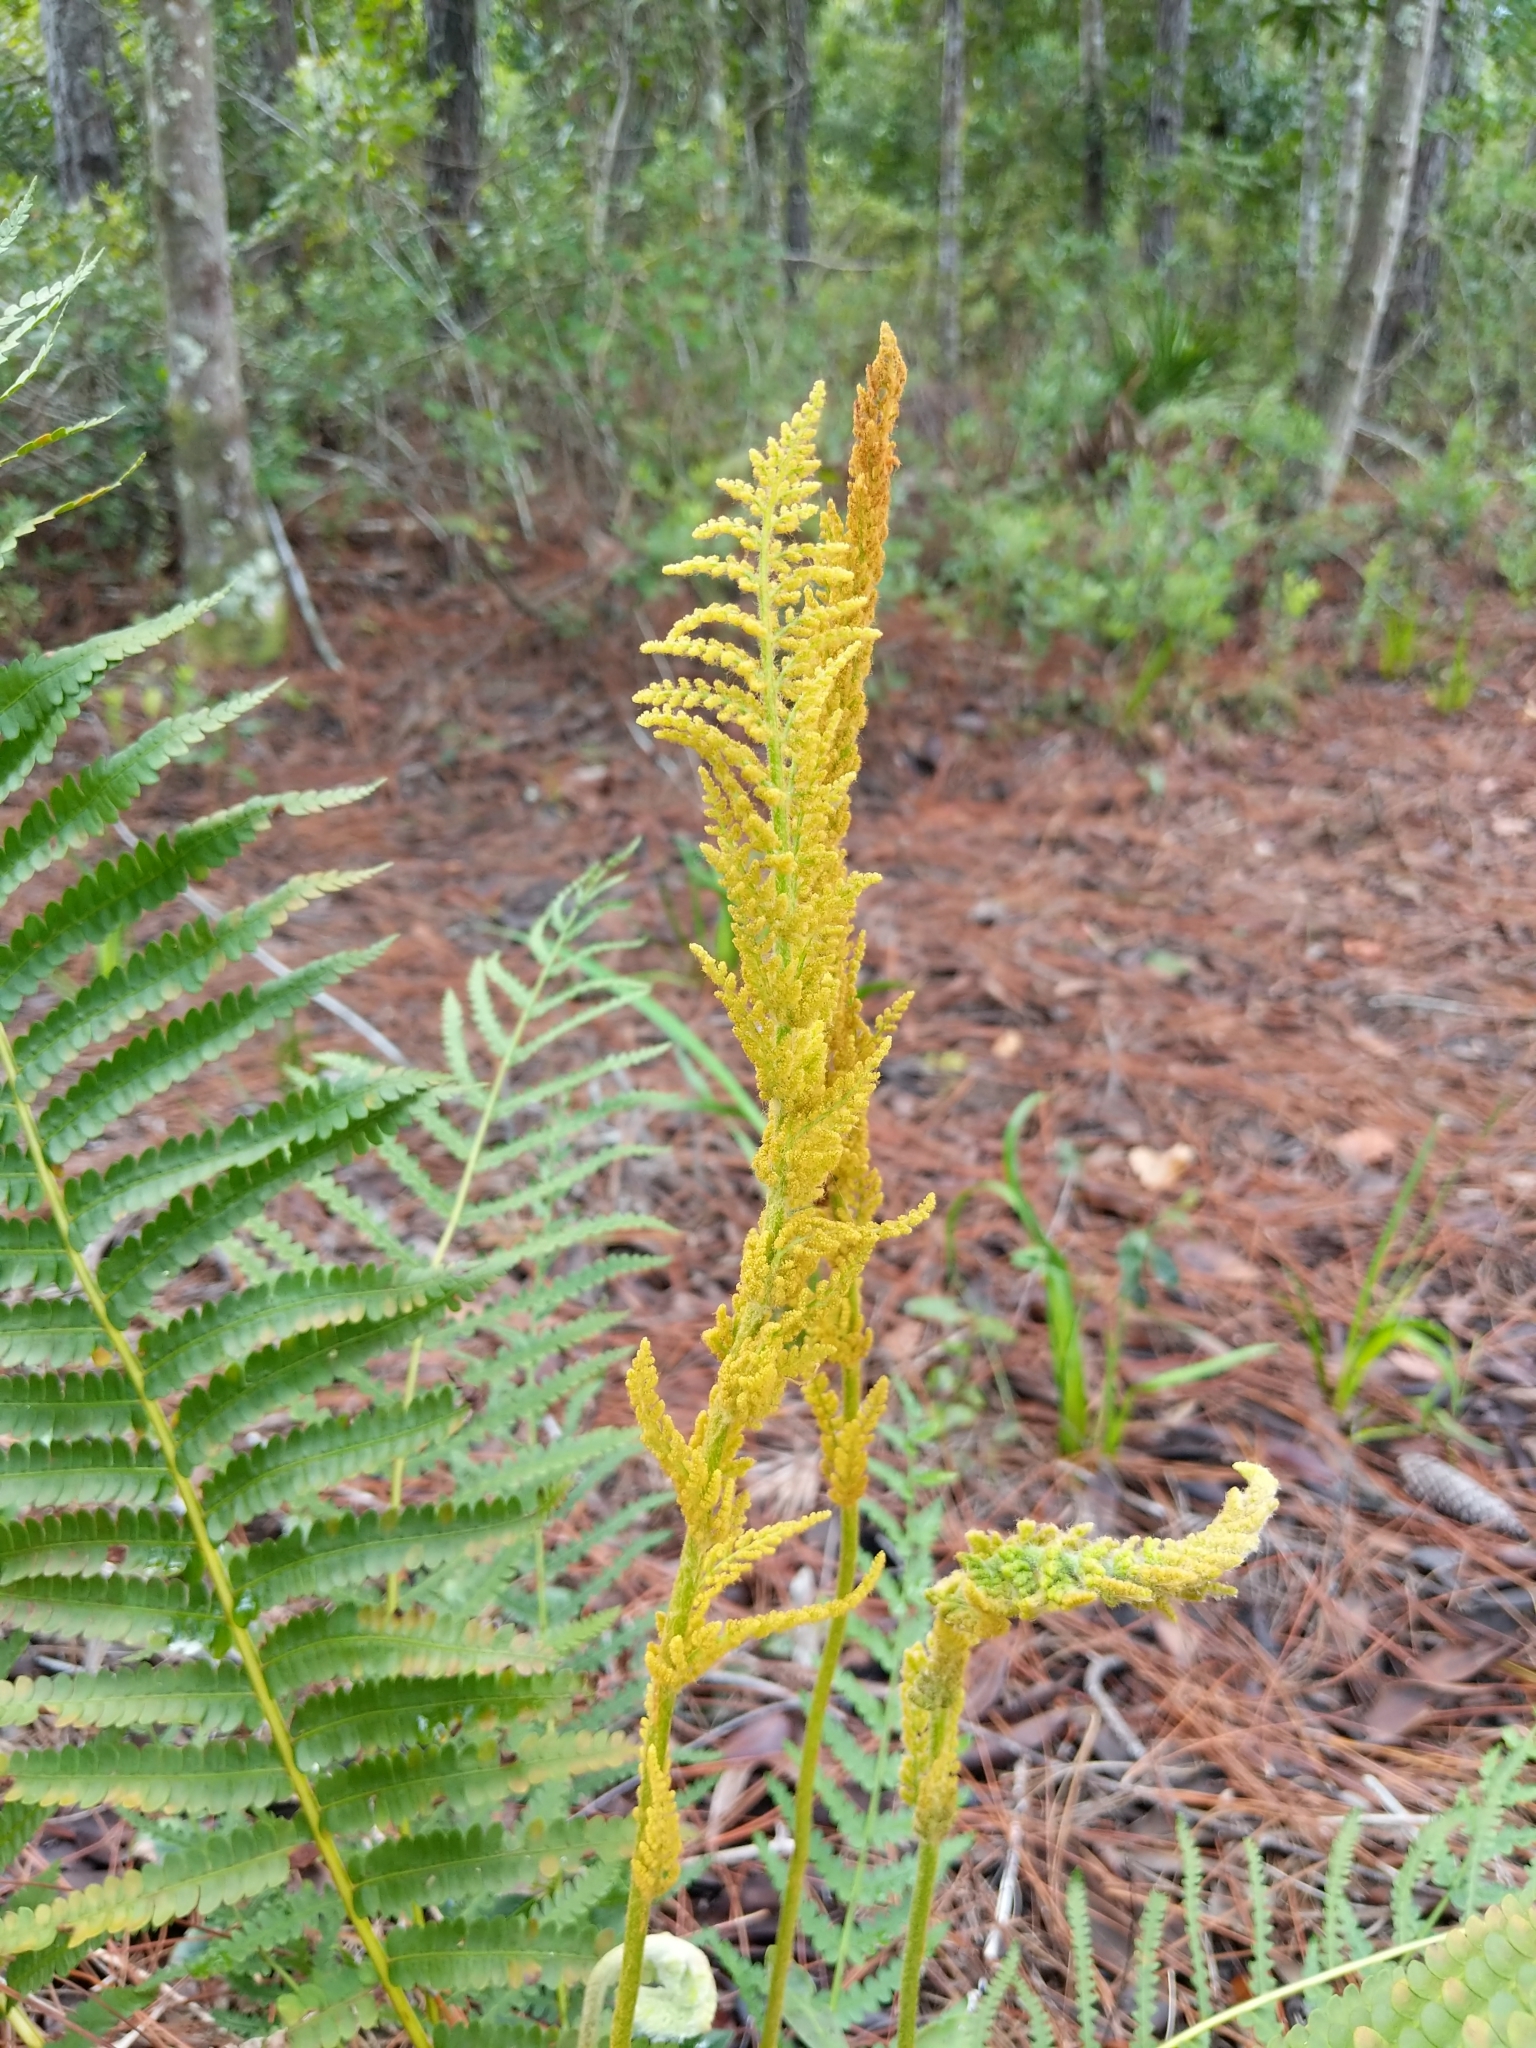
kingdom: Plantae
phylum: Tracheophyta
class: Polypodiopsida
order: Osmundales
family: Osmundaceae
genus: Osmundastrum
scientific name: Osmundastrum cinnamomeum
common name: Cinnamon fern
